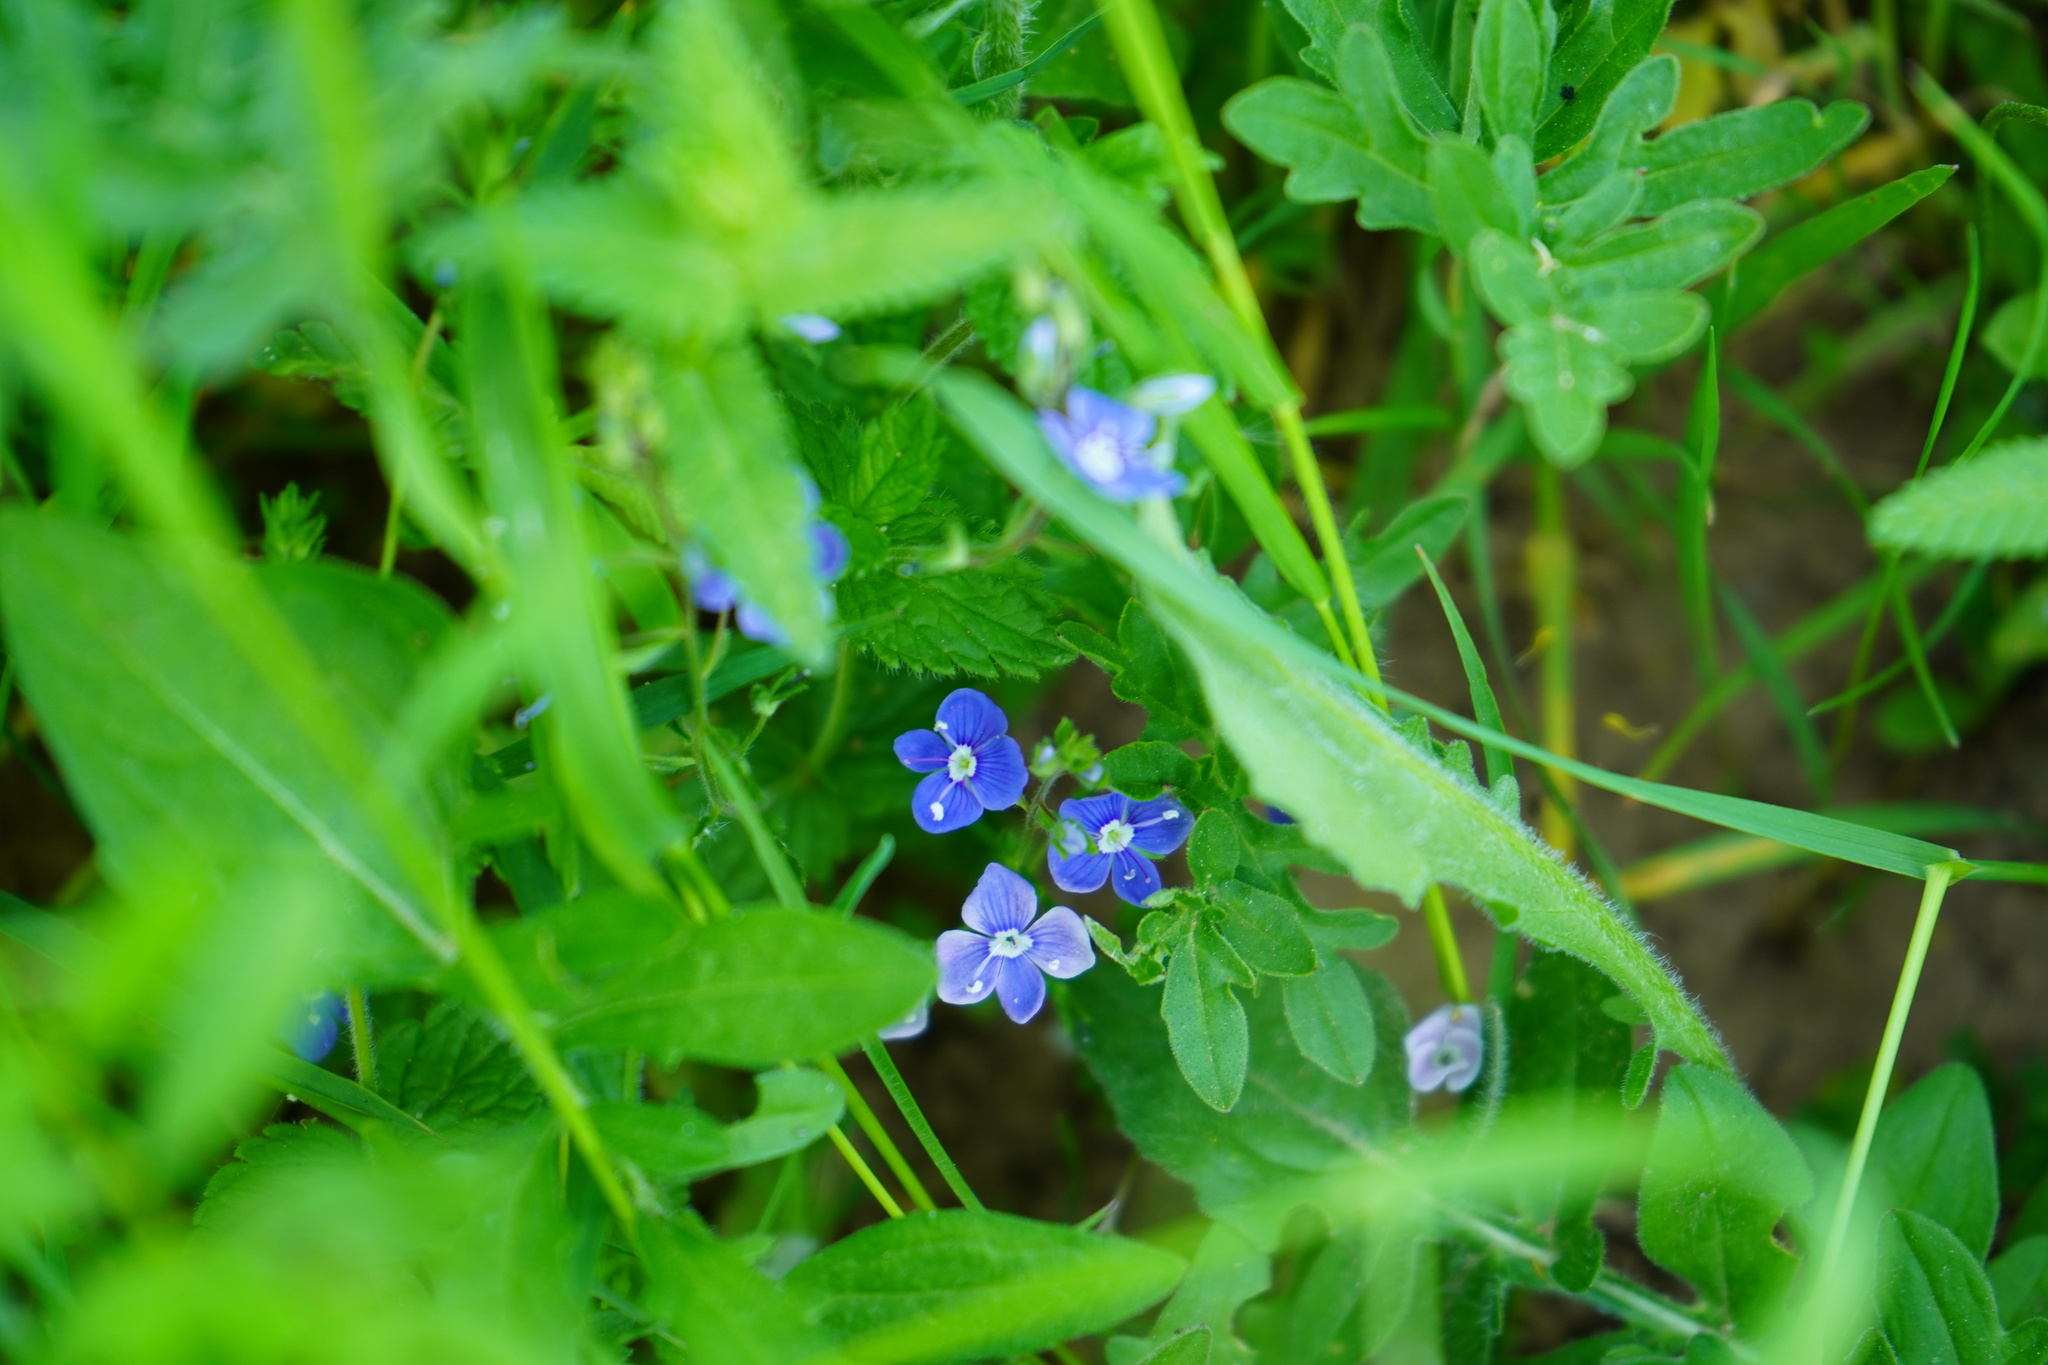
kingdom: Plantae
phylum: Tracheophyta
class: Magnoliopsida
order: Lamiales
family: Plantaginaceae
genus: Veronica
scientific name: Veronica chamaedrys
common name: Germander speedwell
